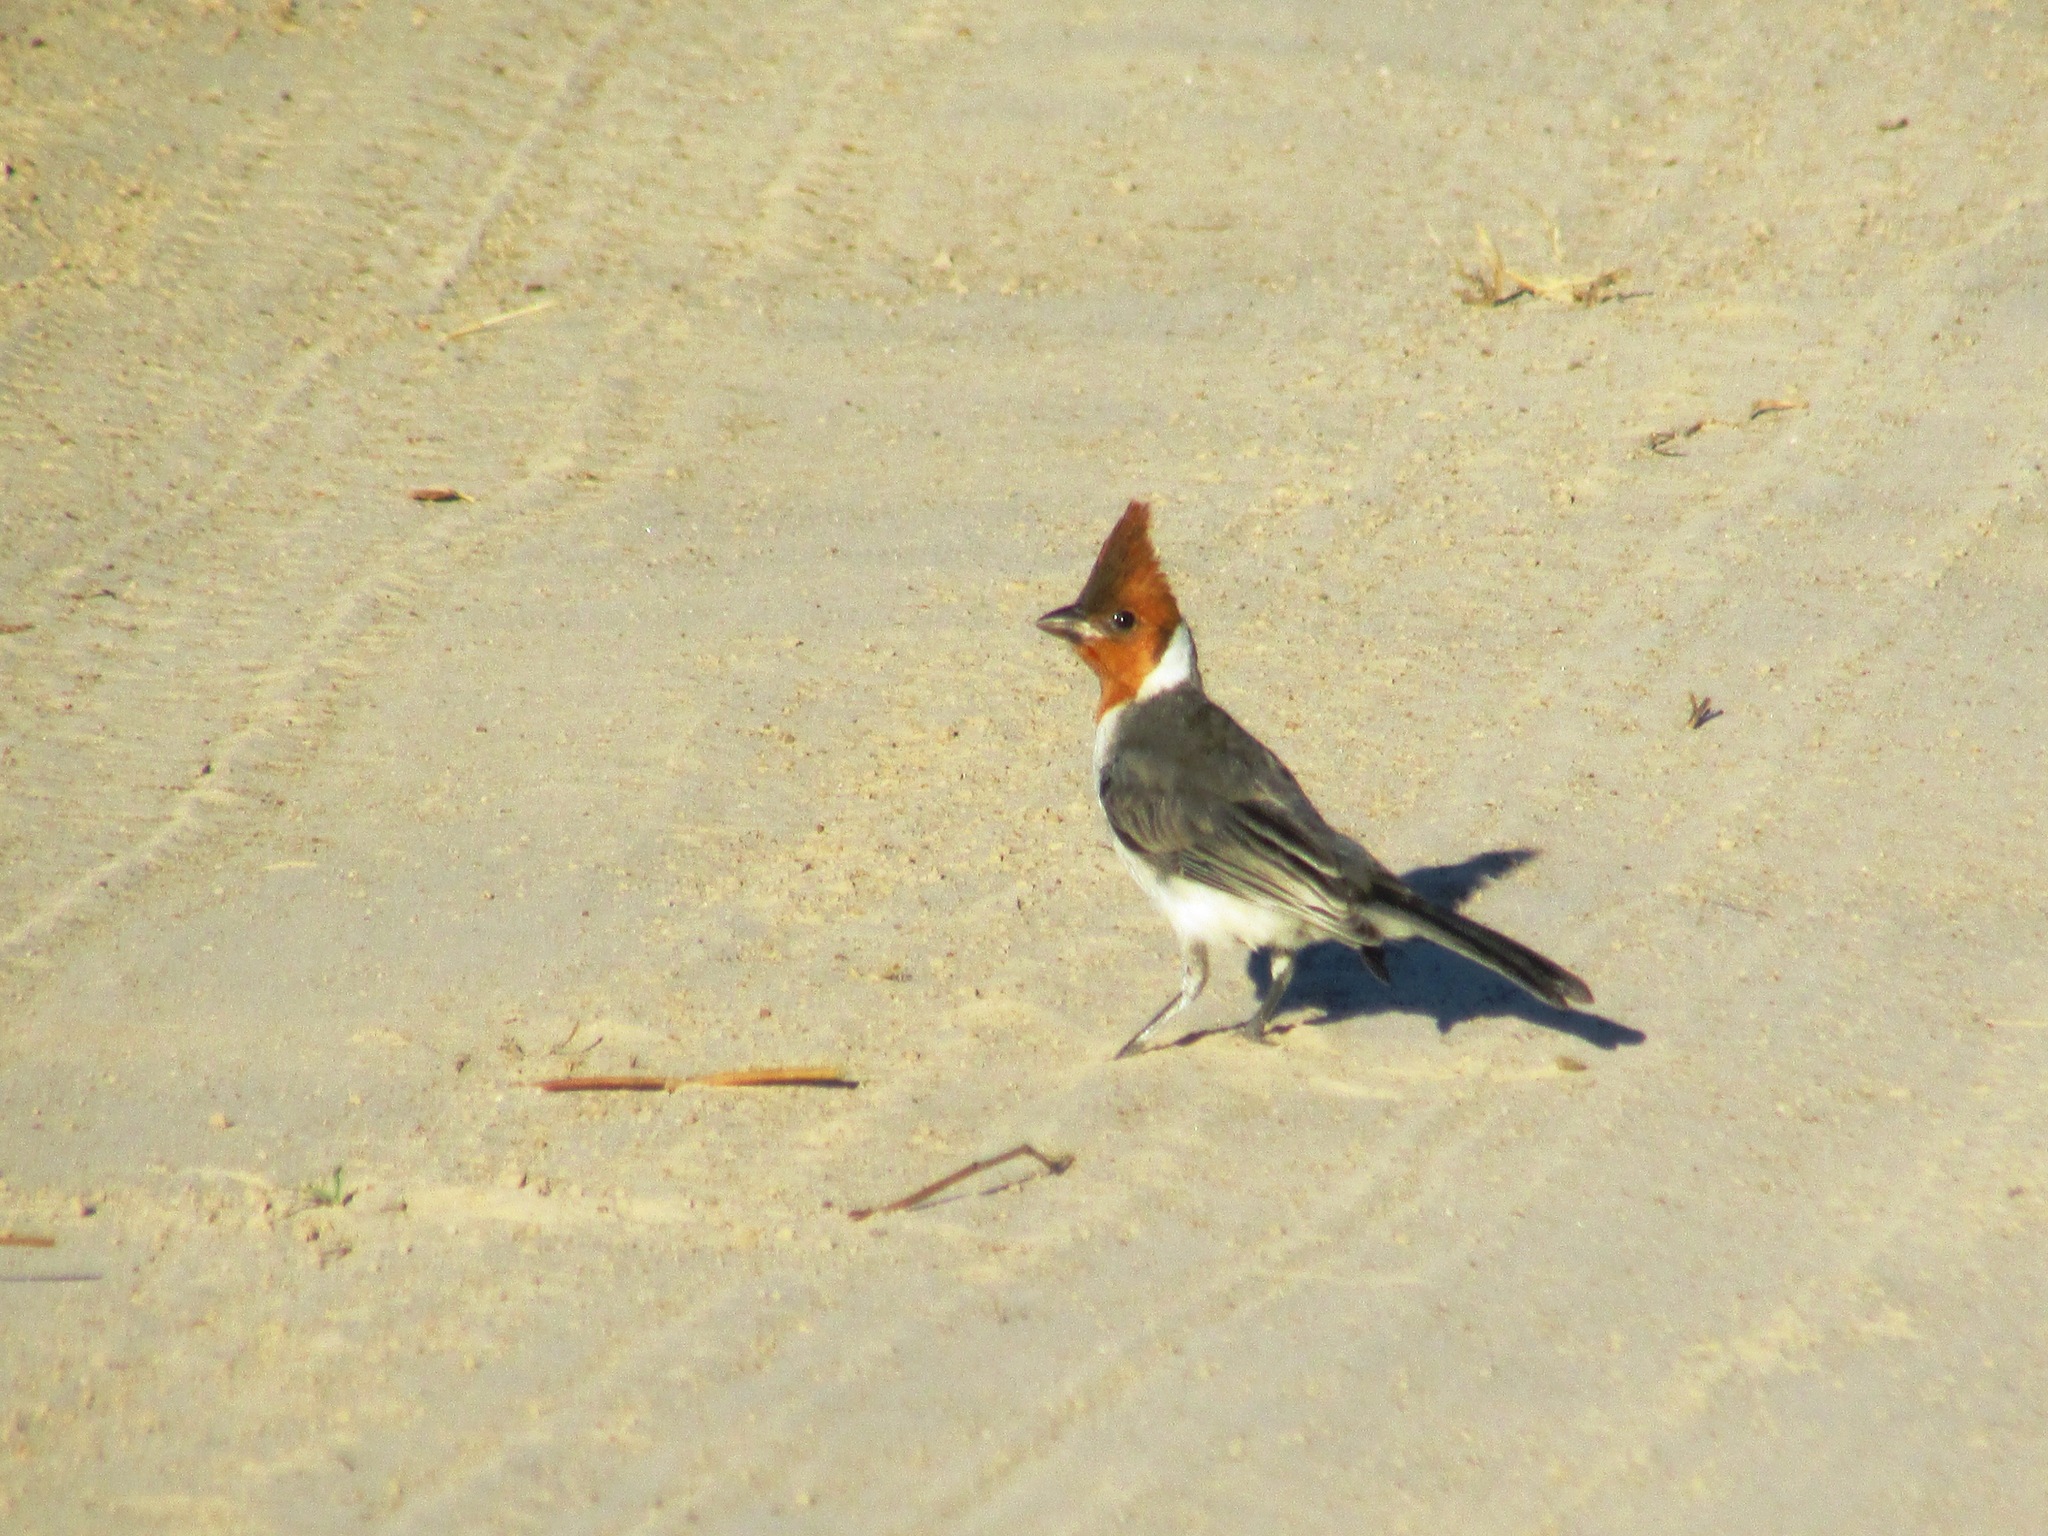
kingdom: Animalia
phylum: Chordata
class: Aves
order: Passeriformes
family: Thraupidae
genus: Paroaria
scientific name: Paroaria coronata
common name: Red-crested cardinal
